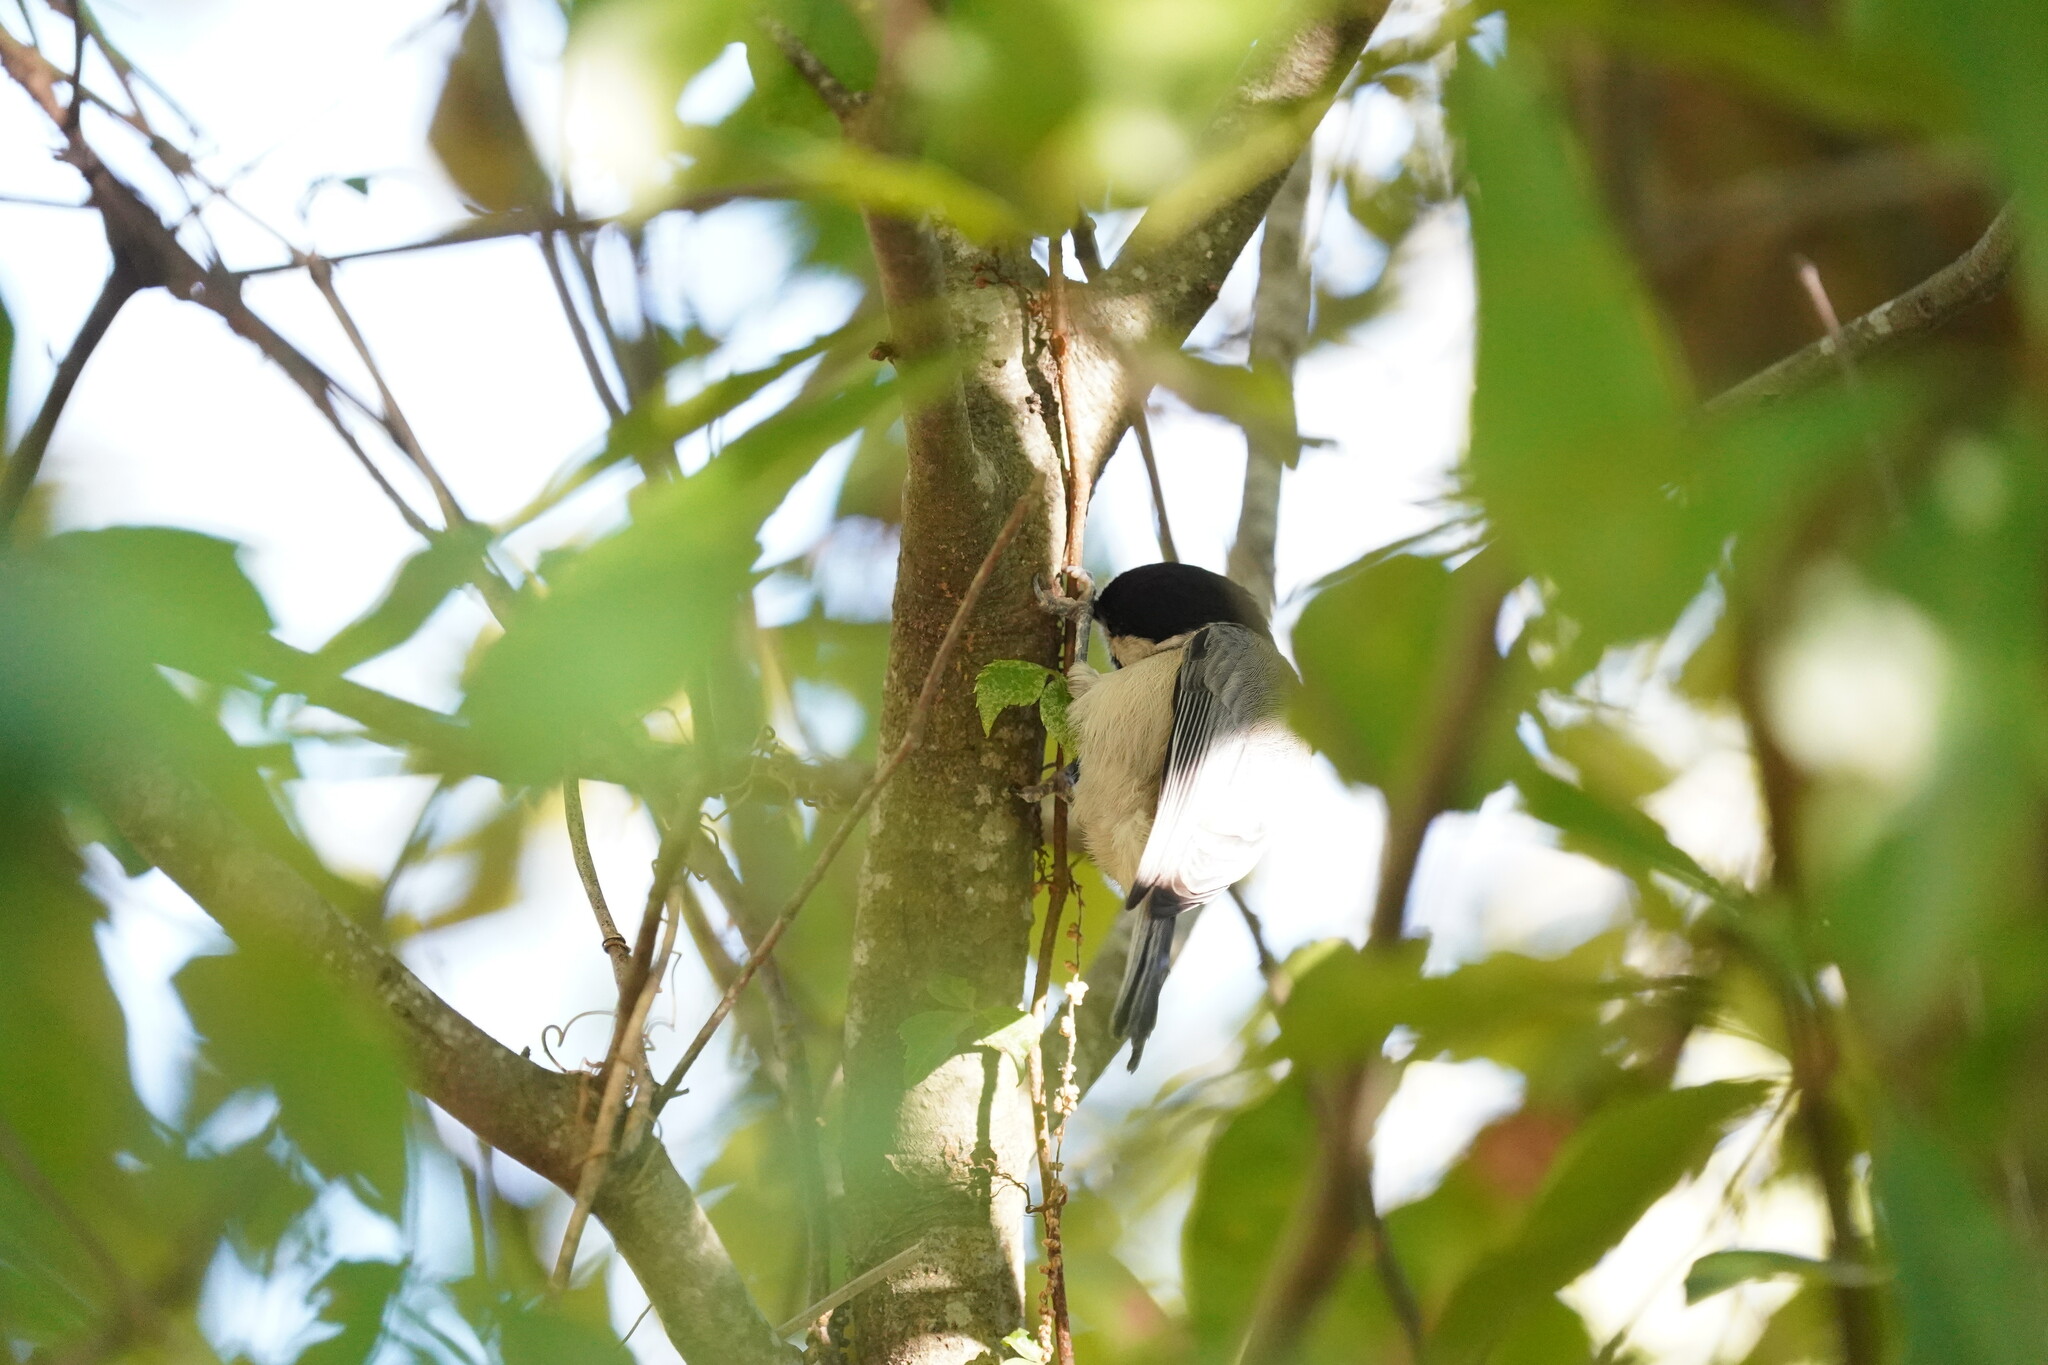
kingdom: Animalia
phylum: Chordata
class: Aves
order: Passeriformes
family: Paridae
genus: Poecile
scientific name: Poecile carolinensis
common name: Carolina chickadee
